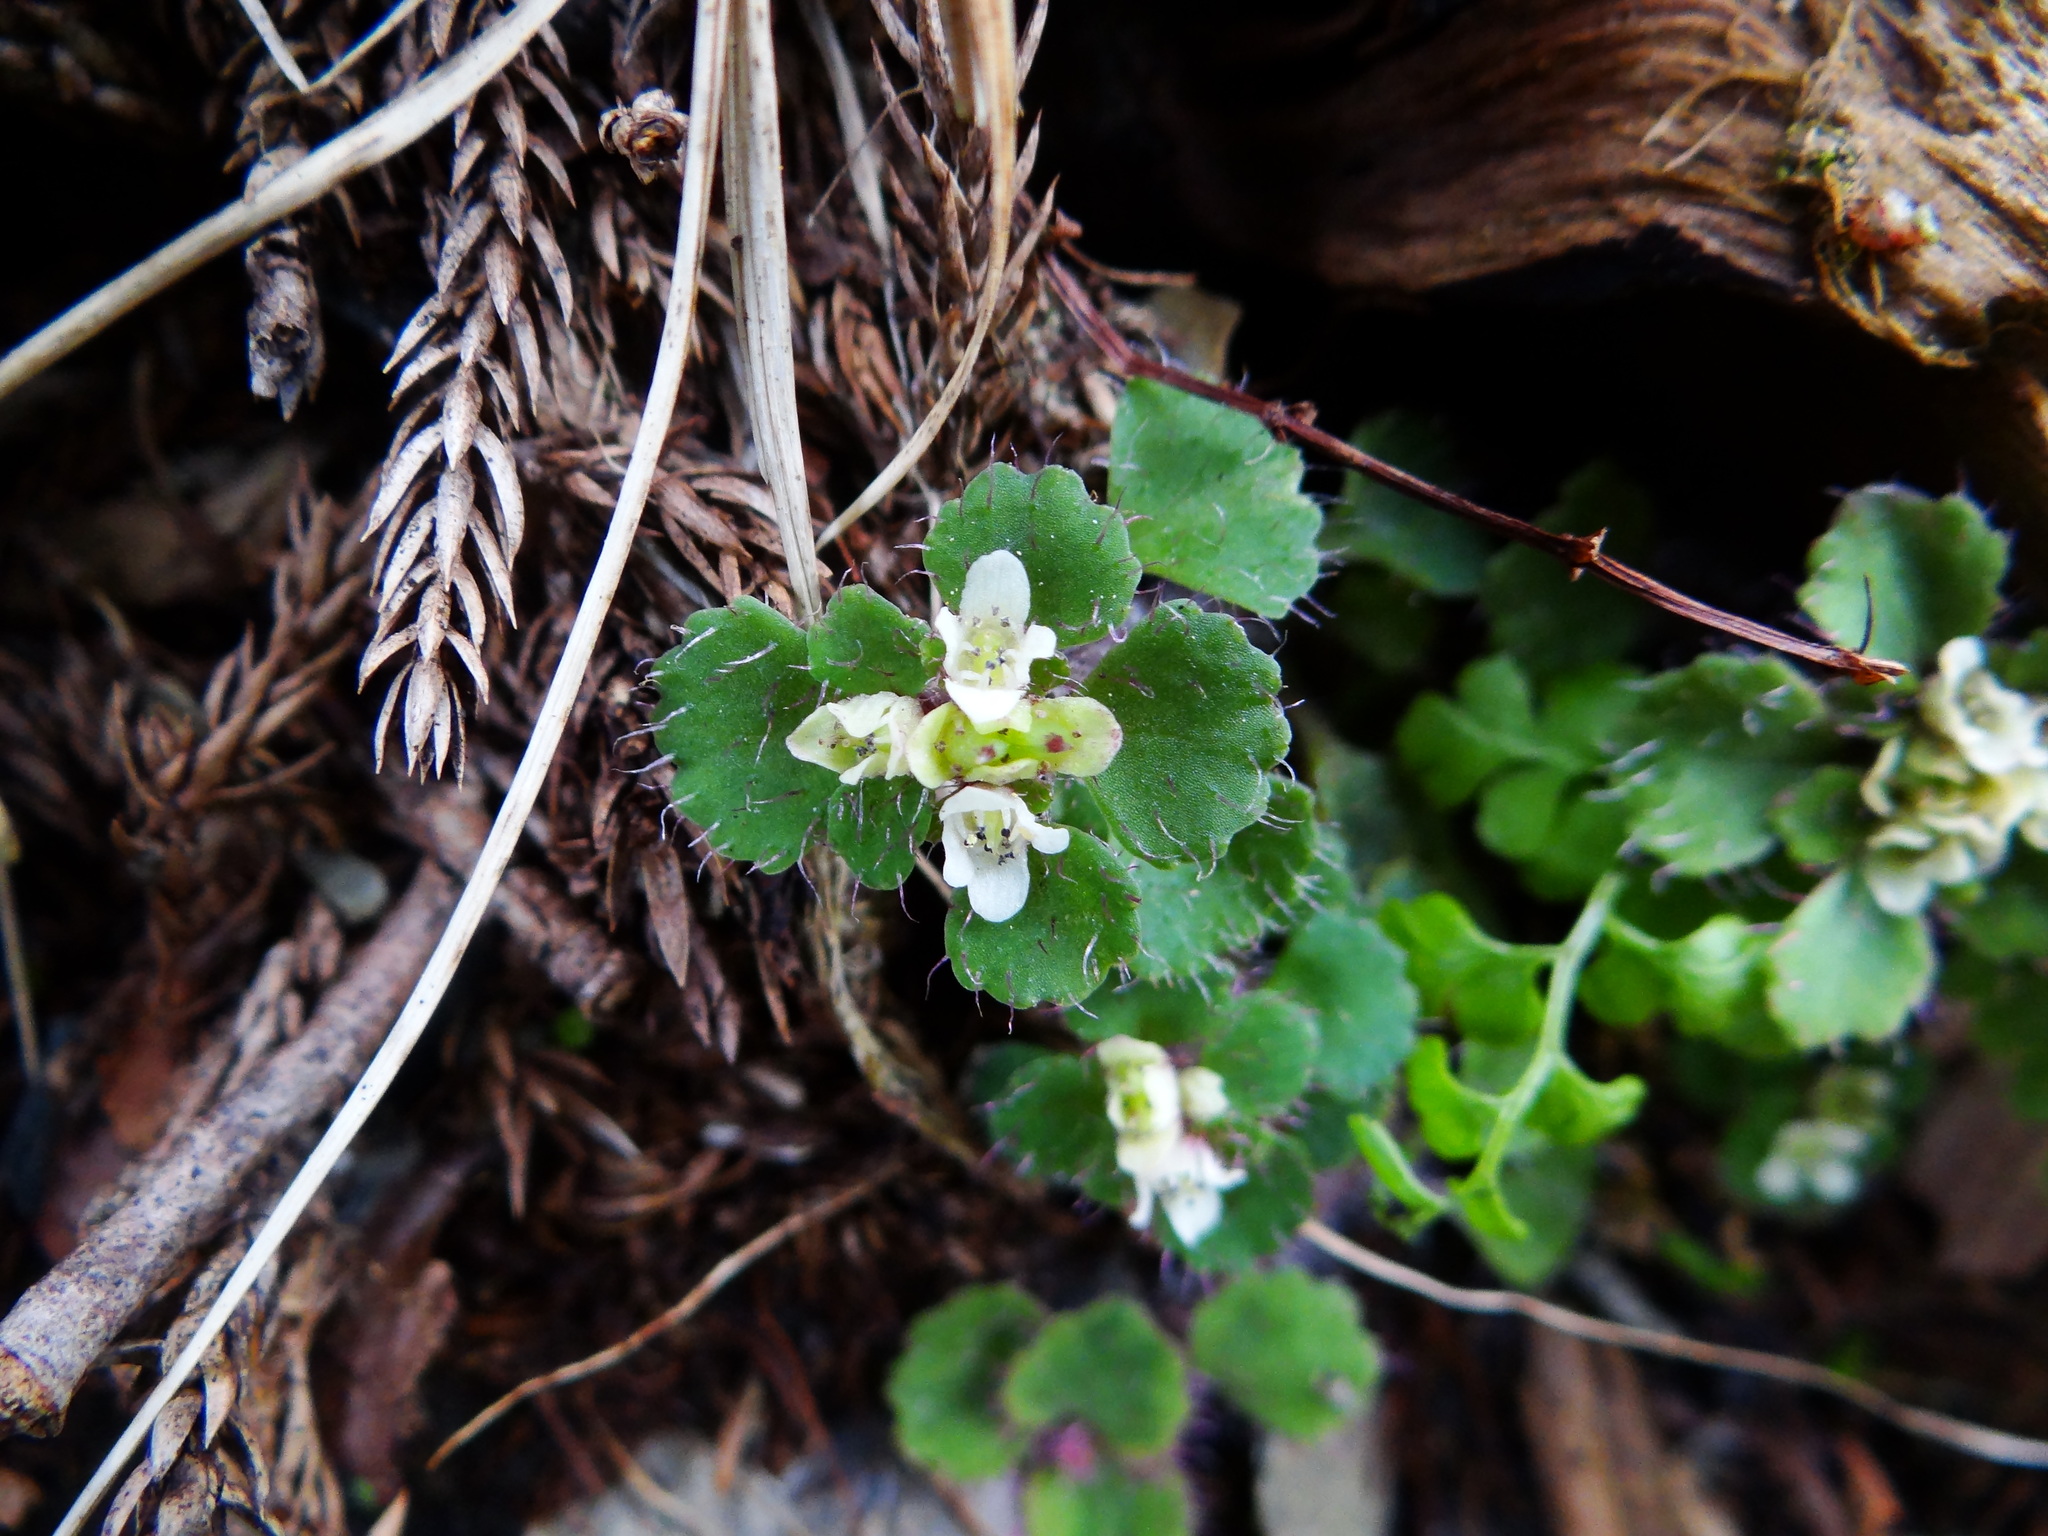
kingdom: Plantae
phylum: Tracheophyta
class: Magnoliopsida
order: Saxifragales
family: Saxifragaceae
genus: Chrysosplenium
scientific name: Chrysosplenium hebetatum
